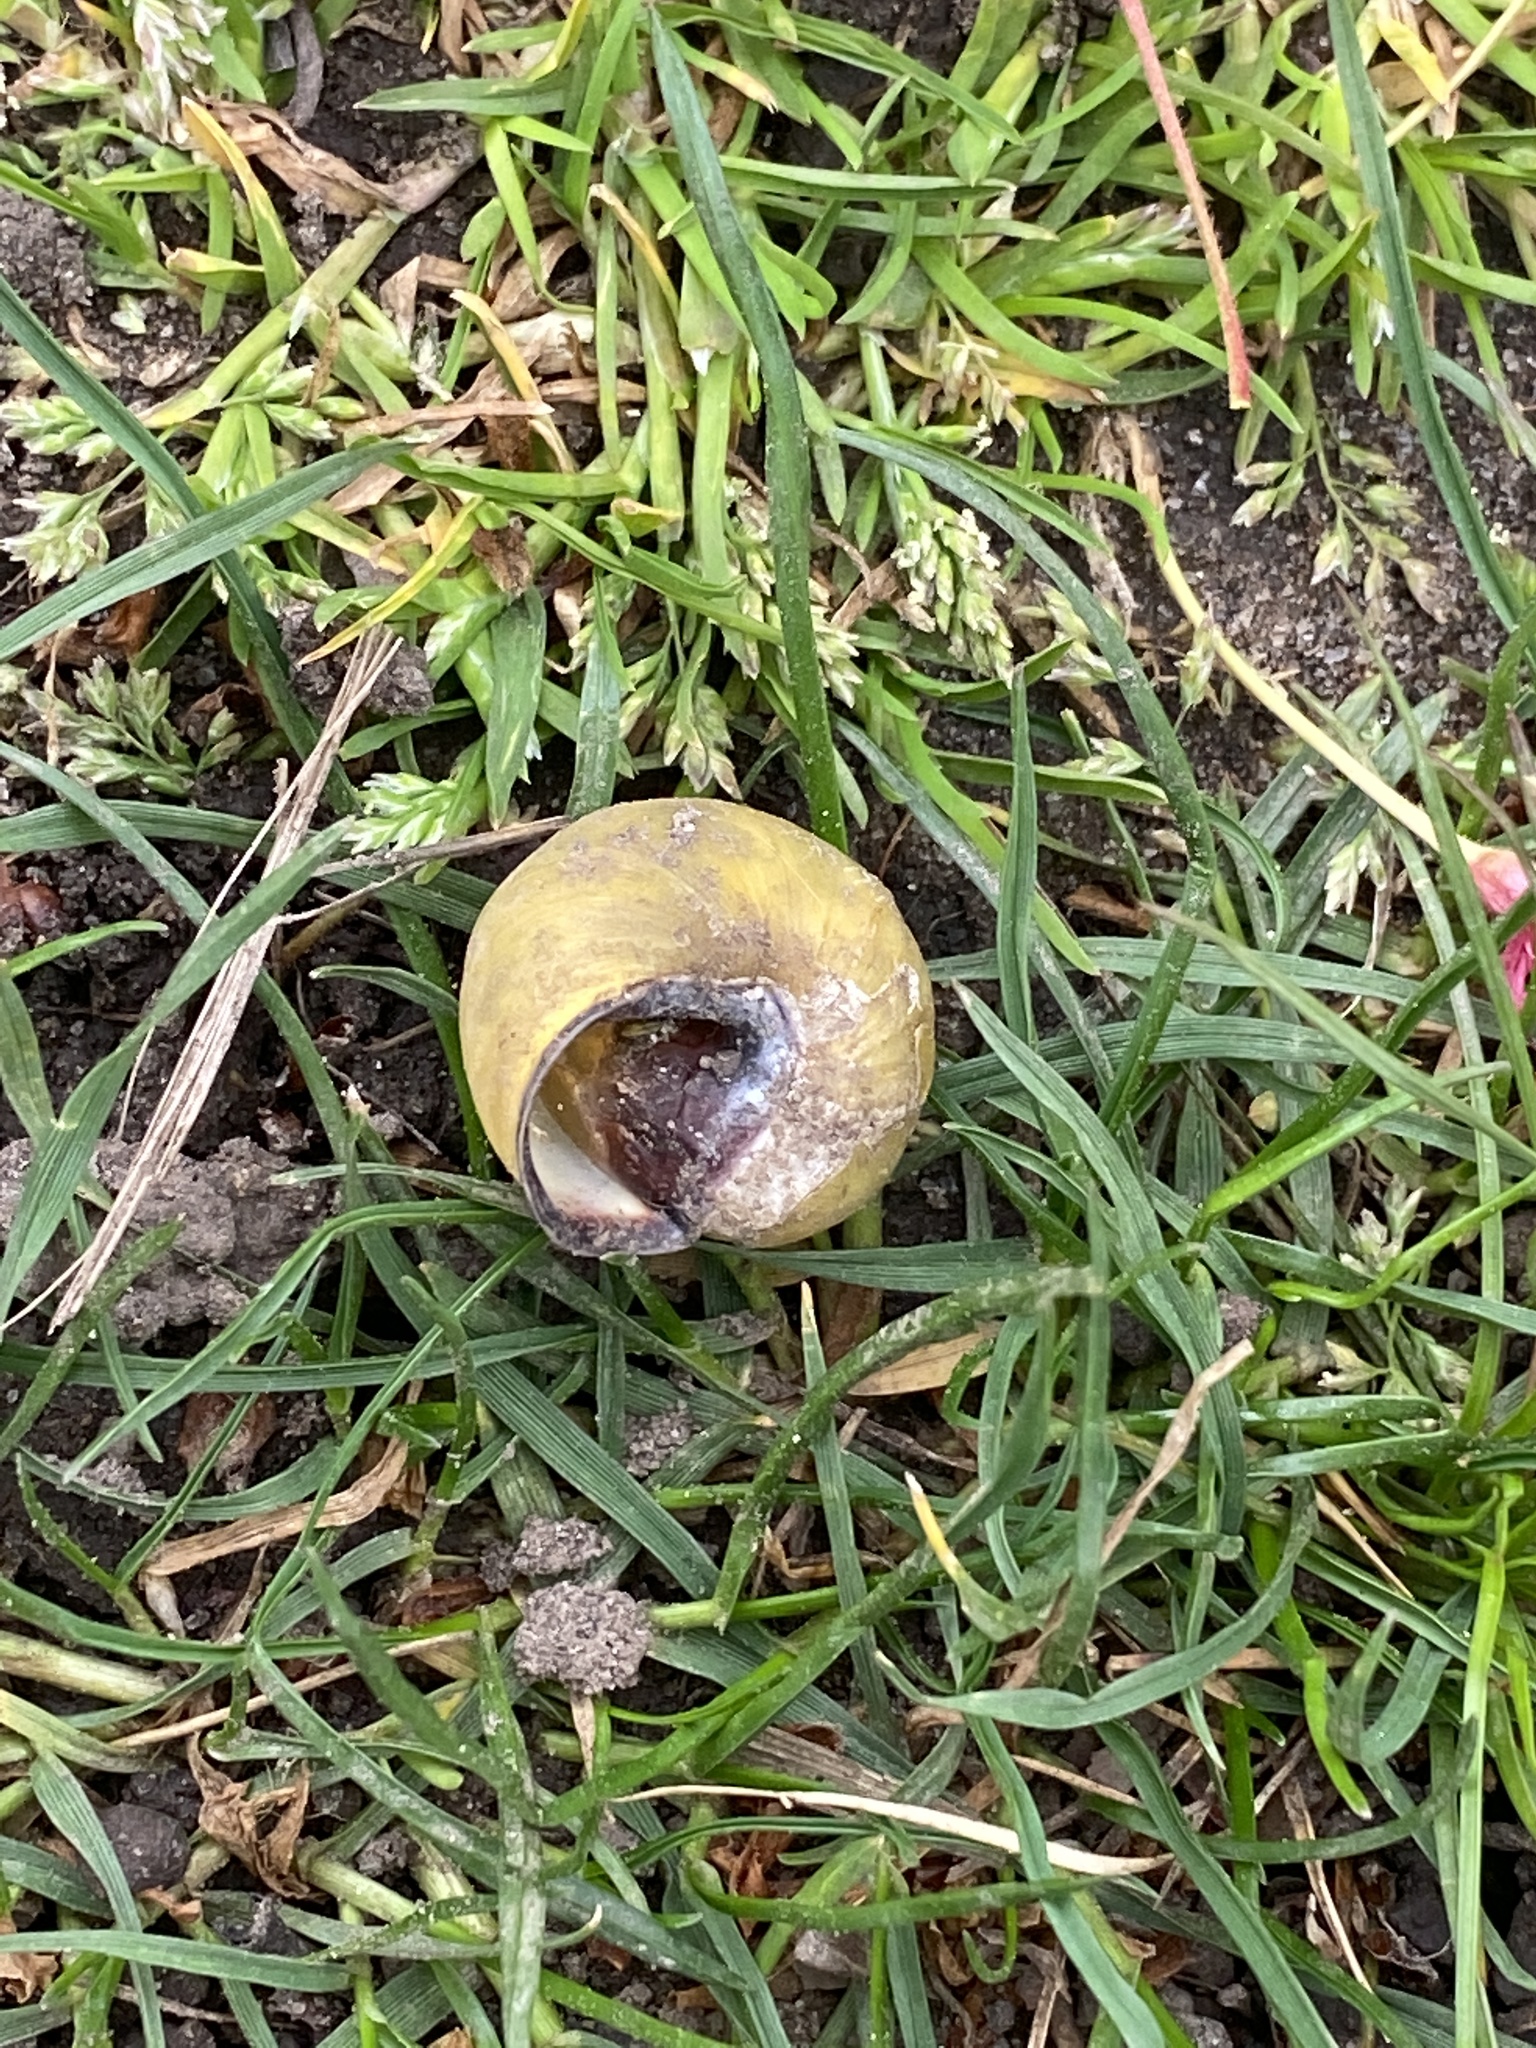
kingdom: Animalia
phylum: Mollusca
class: Gastropoda
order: Stylommatophora
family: Helicidae
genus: Cepaea
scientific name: Cepaea nemoralis
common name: Grovesnail
